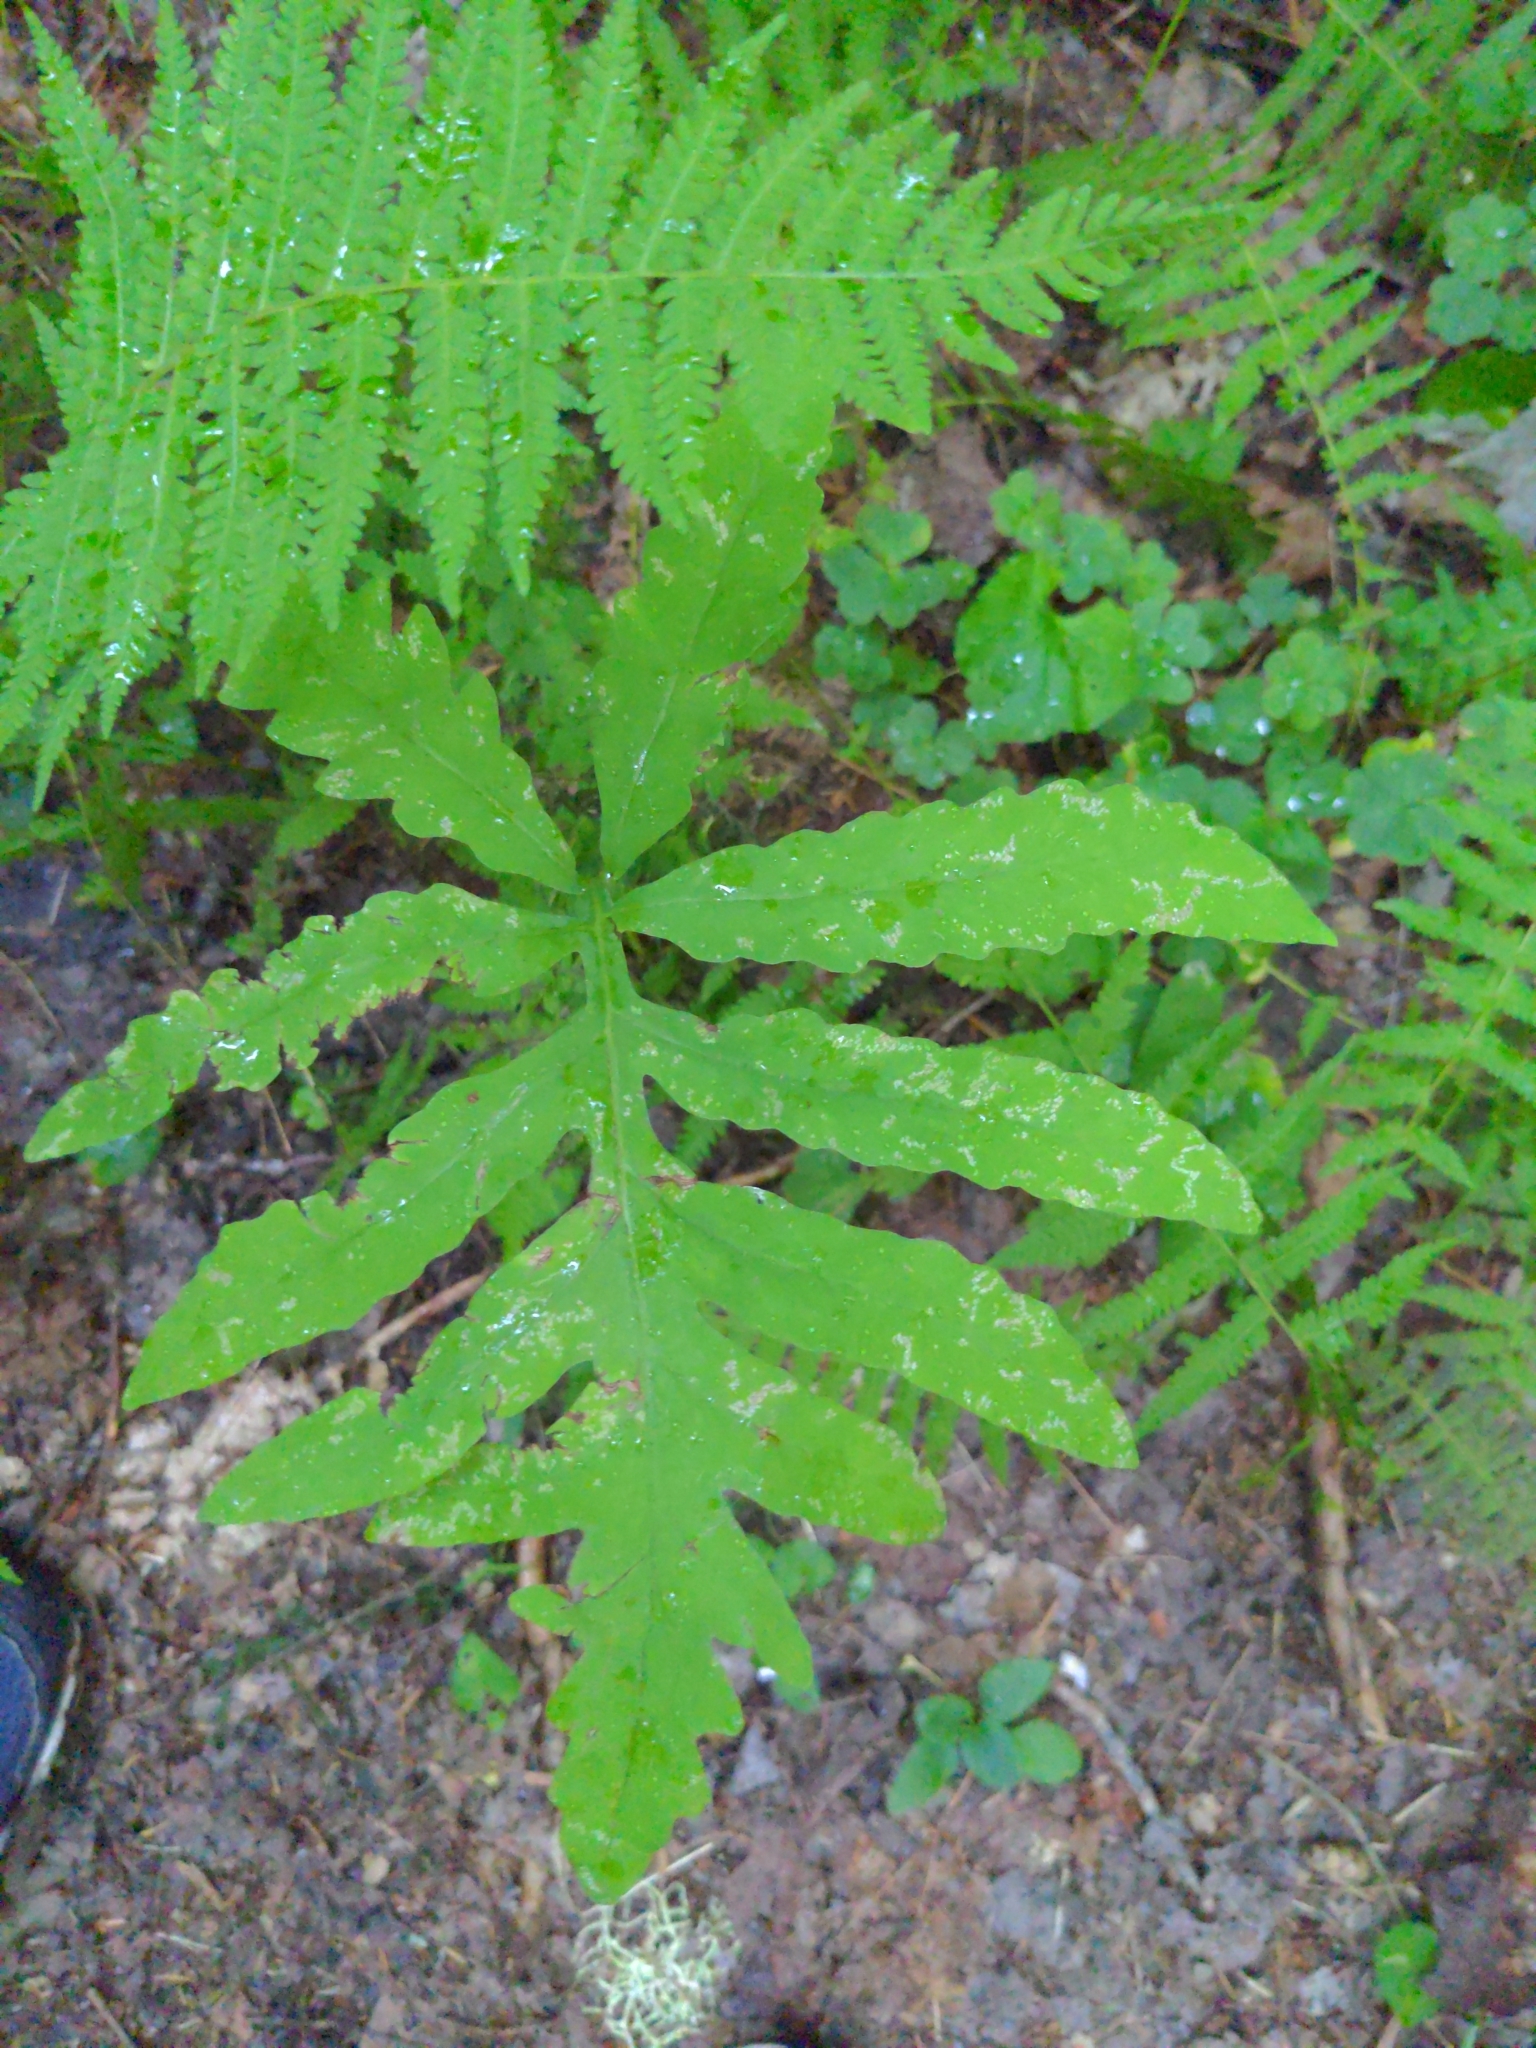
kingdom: Plantae
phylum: Tracheophyta
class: Polypodiopsida
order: Polypodiales
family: Onocleaceae
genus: Onoclea
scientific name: Onoclea sensibilis
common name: Sensitive fern
